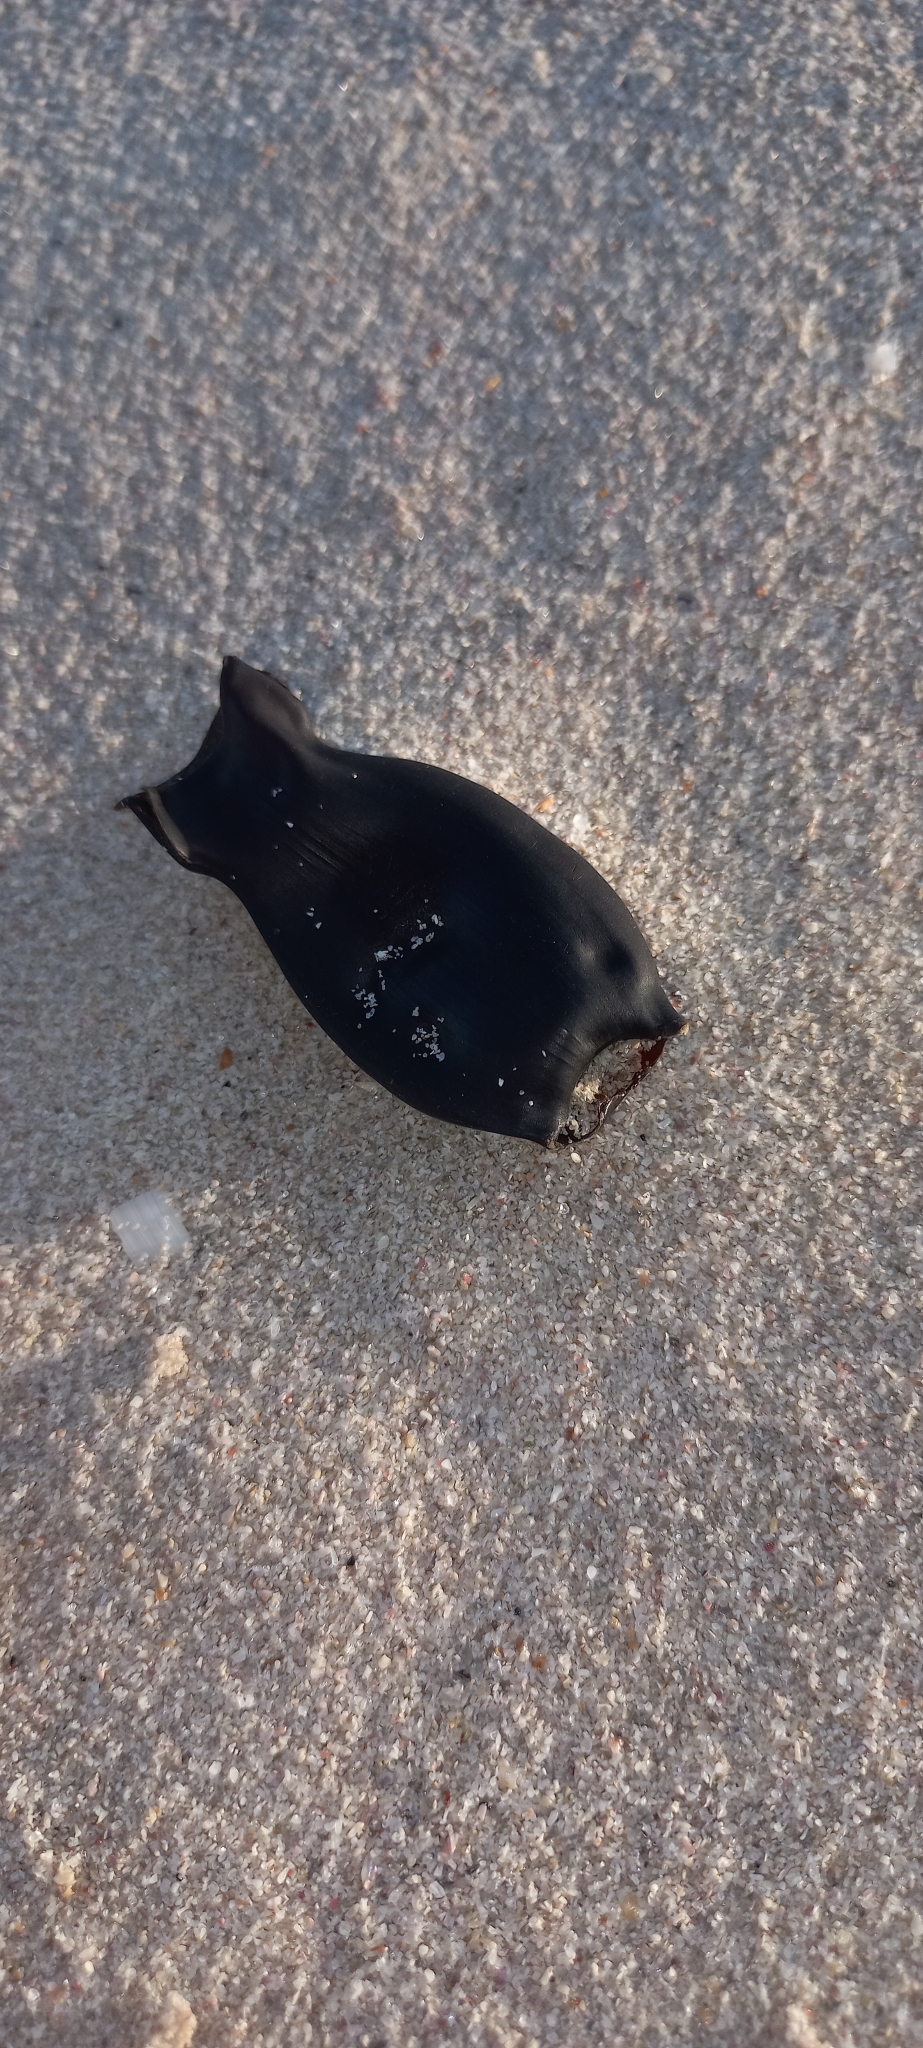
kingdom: Animalia
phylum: Chordata
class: Elasmobranchii
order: Carcharhiniformes
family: Scyliorhinidae
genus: Haploblepharus
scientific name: Haploblepharus pictus
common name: Dark shyshark
